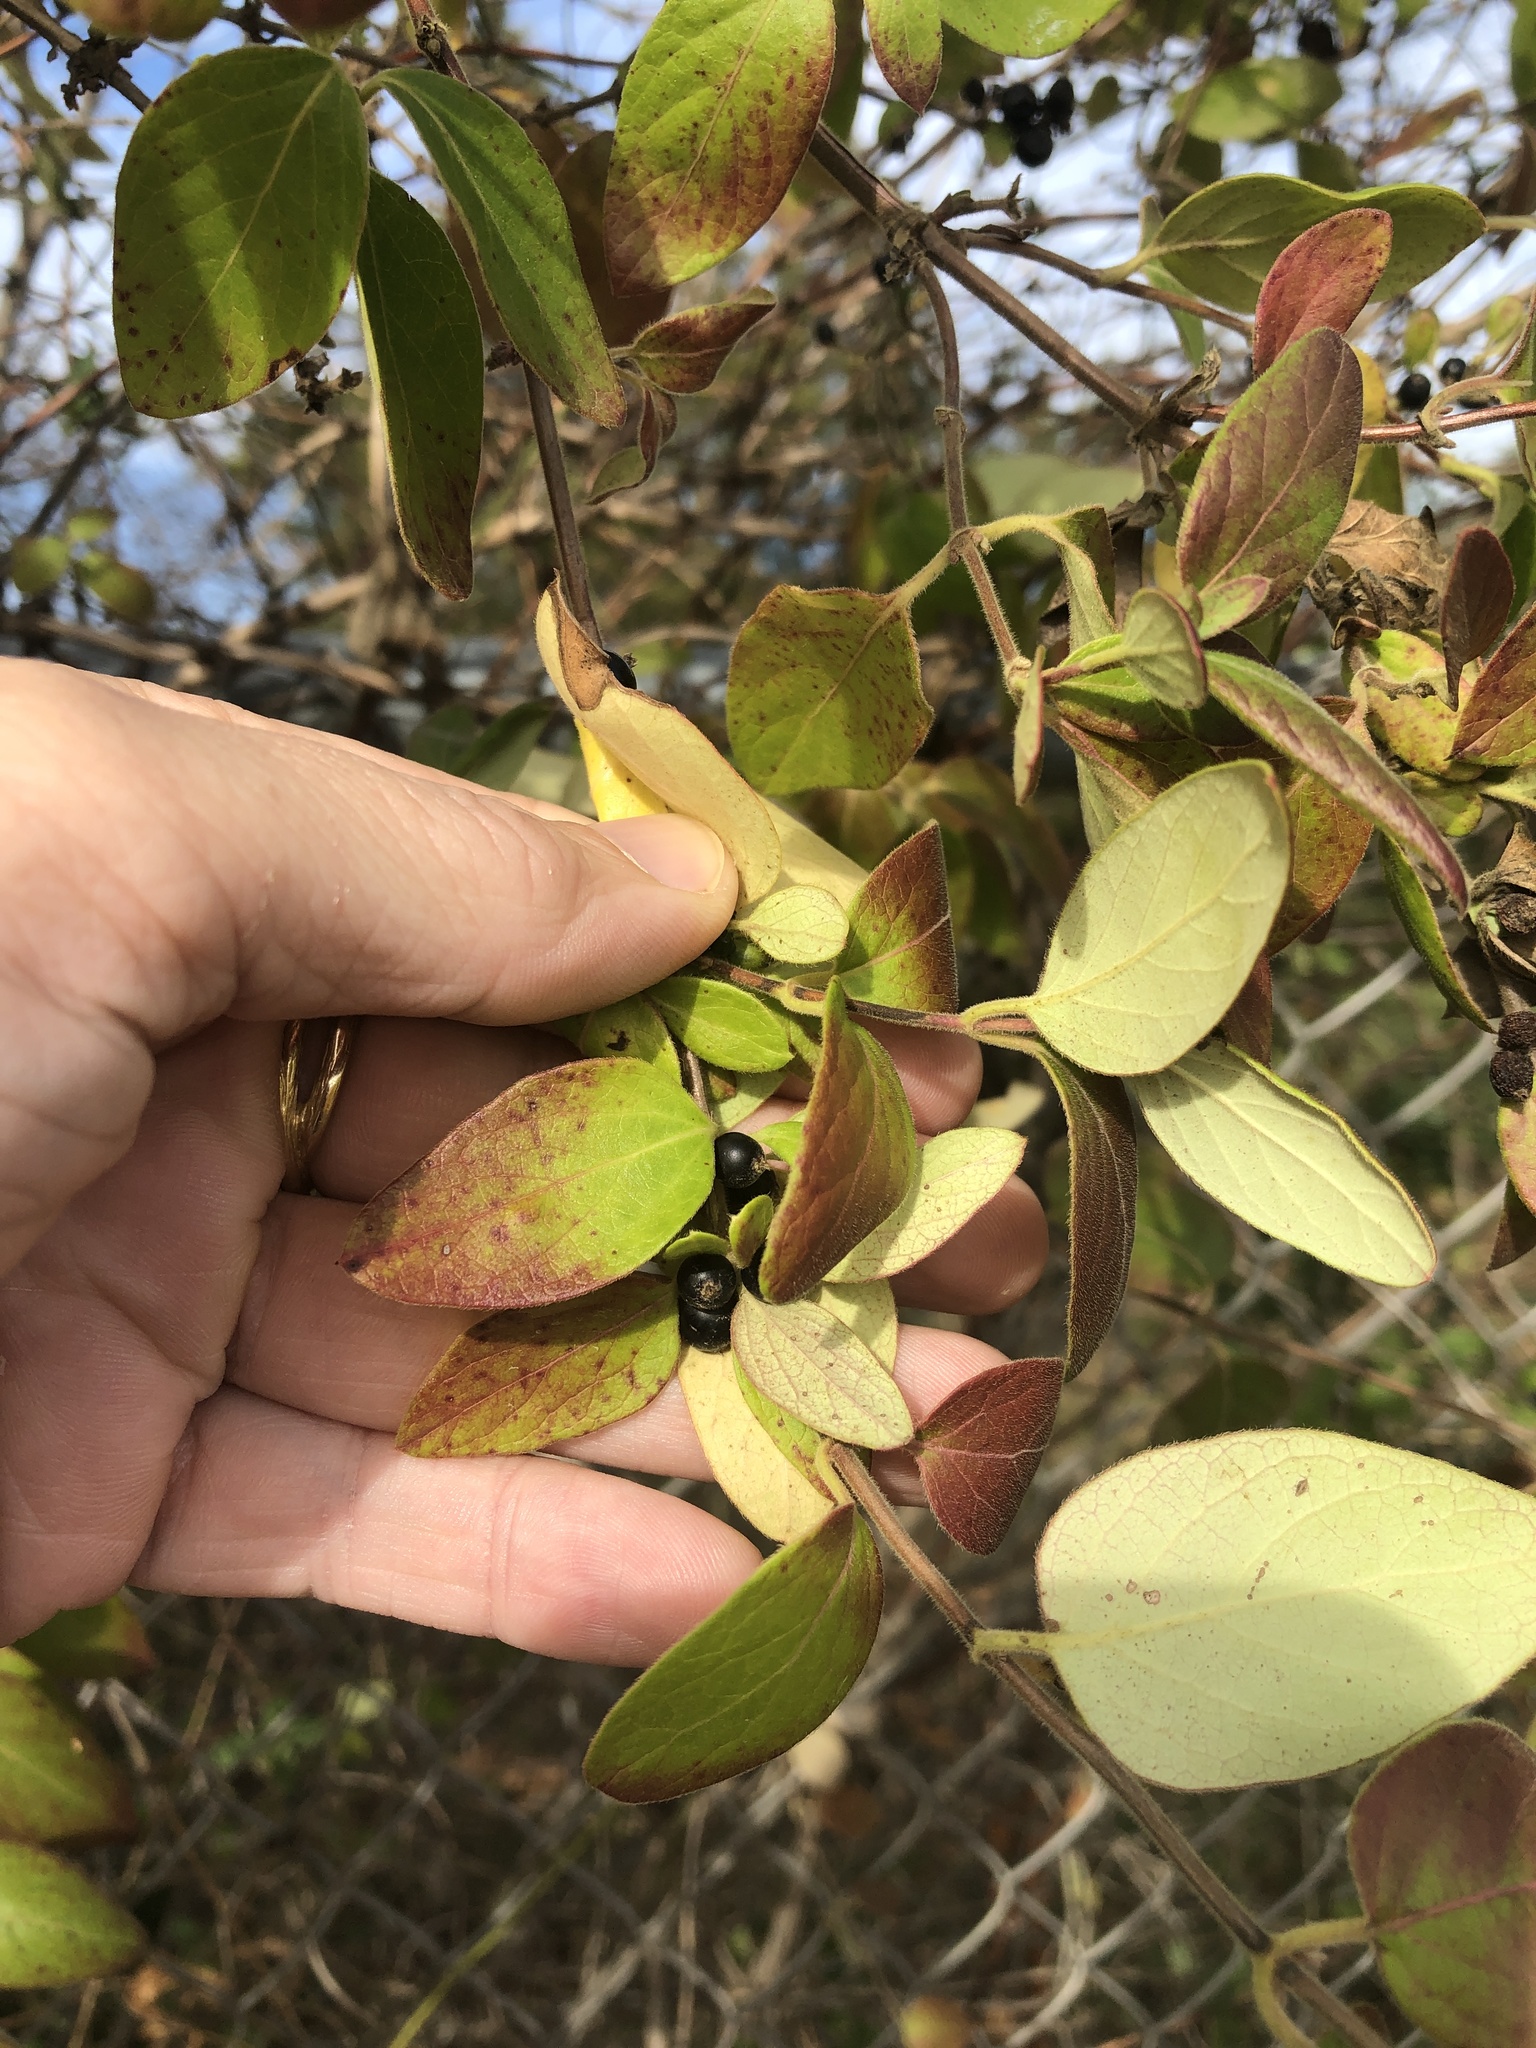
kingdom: Plantae
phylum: Tracheophyta
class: Magnoliopsida
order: Dipsacales
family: Caprifoliaceae
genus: Lonicera
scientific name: Lonicera japonica
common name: Japanese honeysuckle
